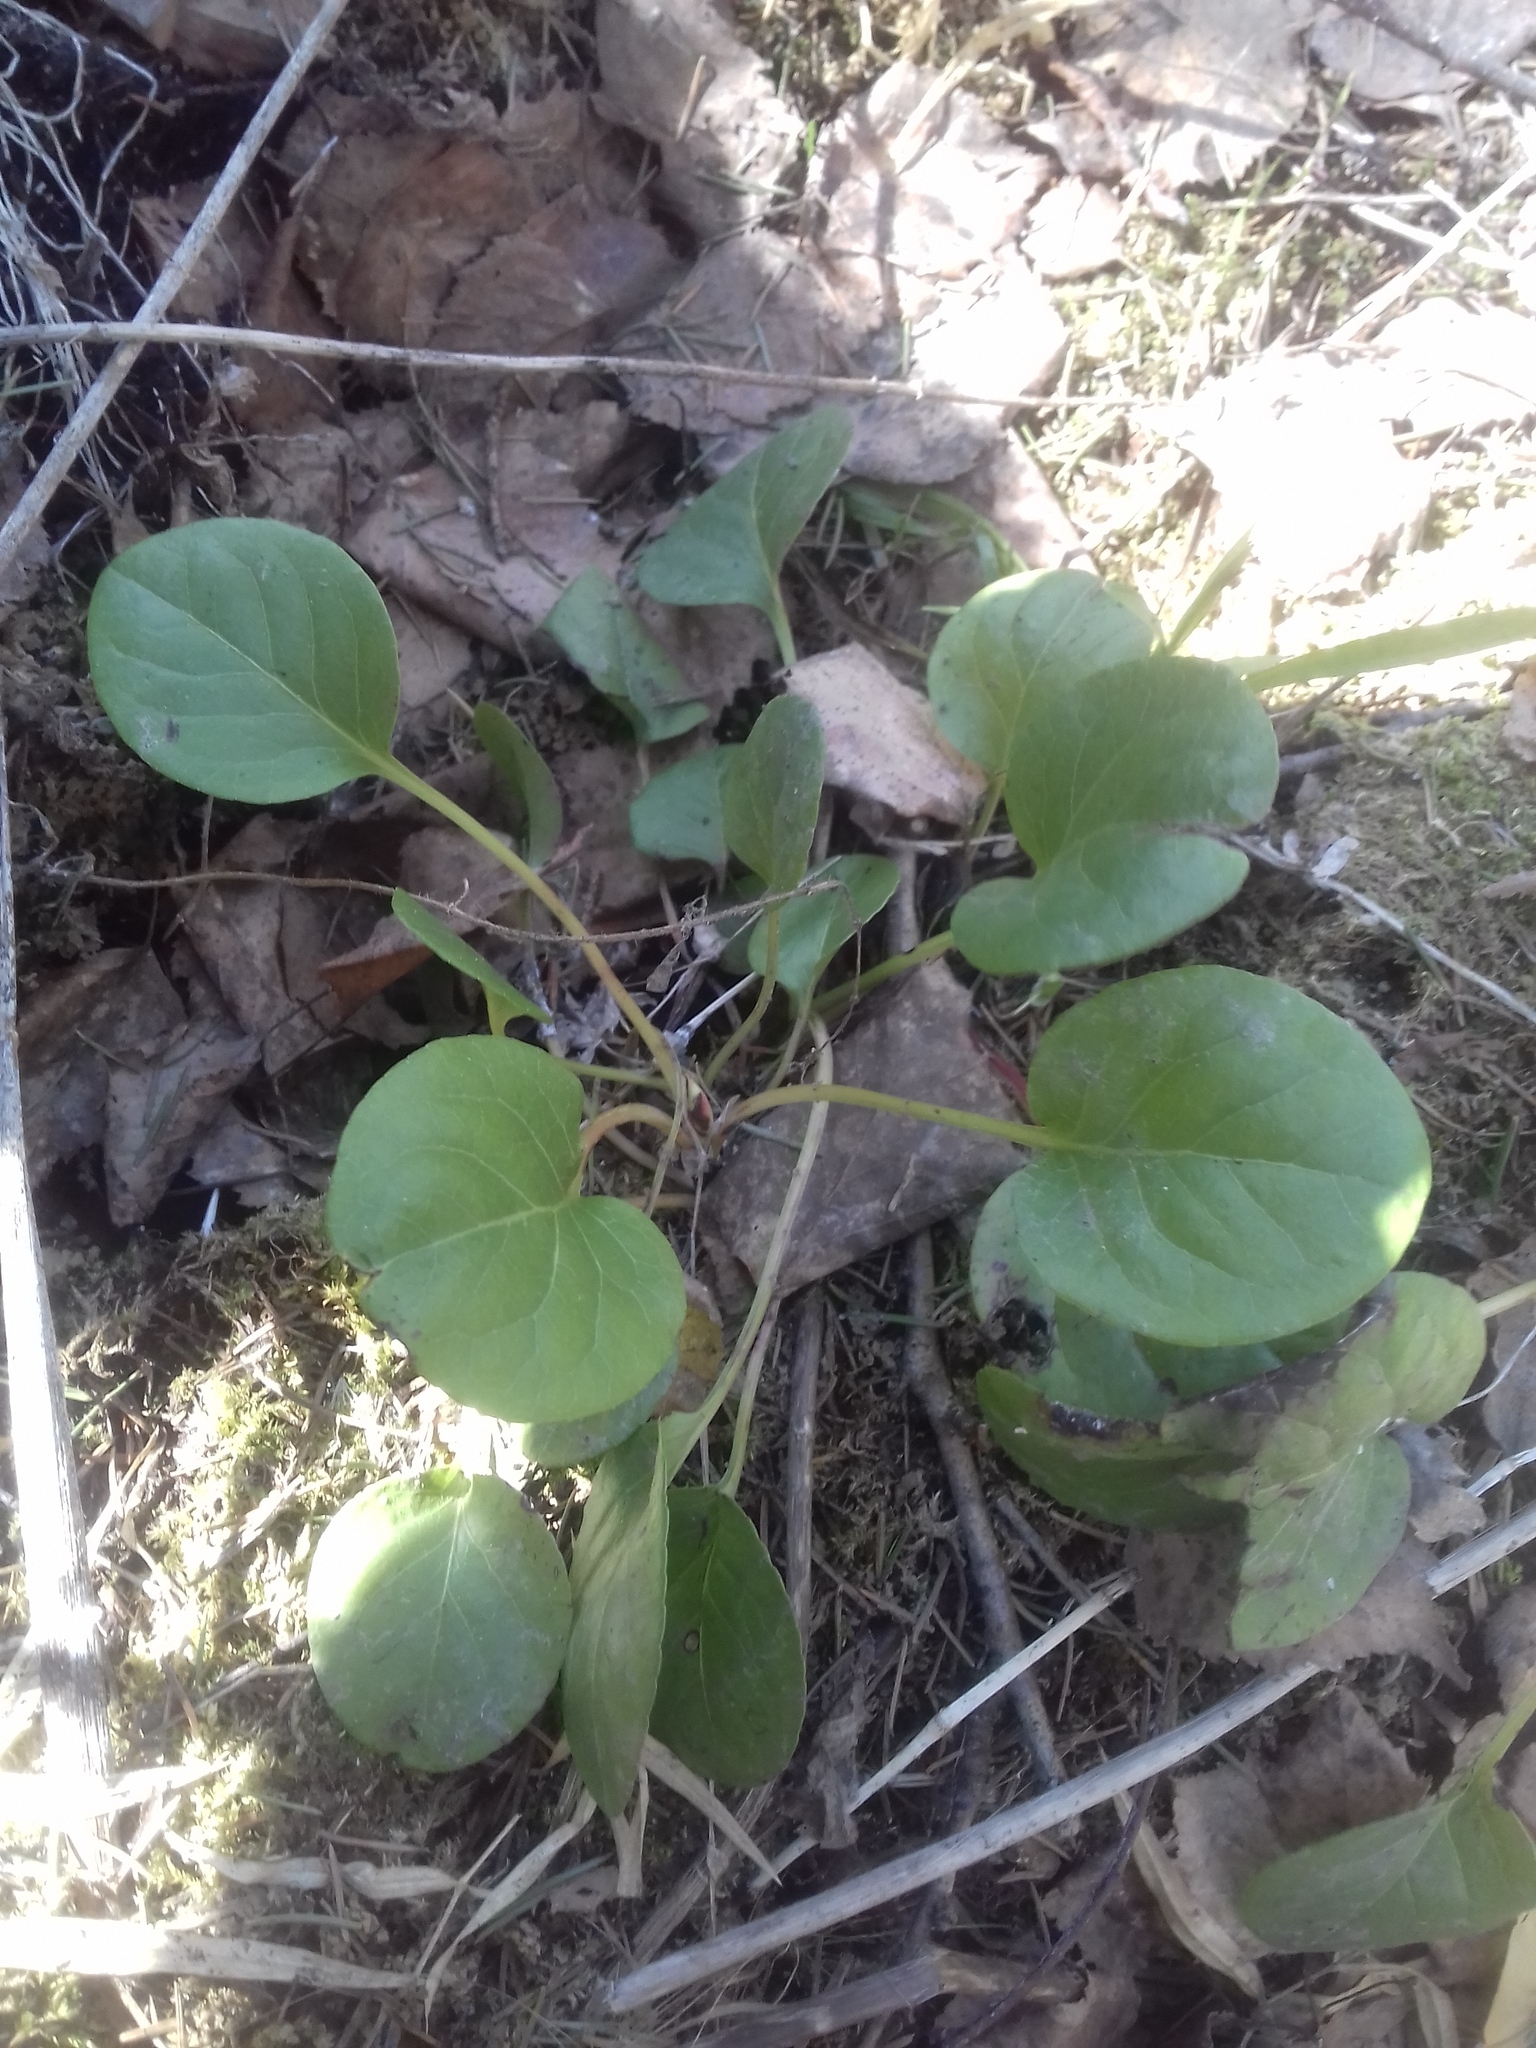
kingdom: Plantae
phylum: Tracheophyta
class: Magnoliopsida
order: Ericales
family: Ericaceae
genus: Pyrola
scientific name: Pyrola
